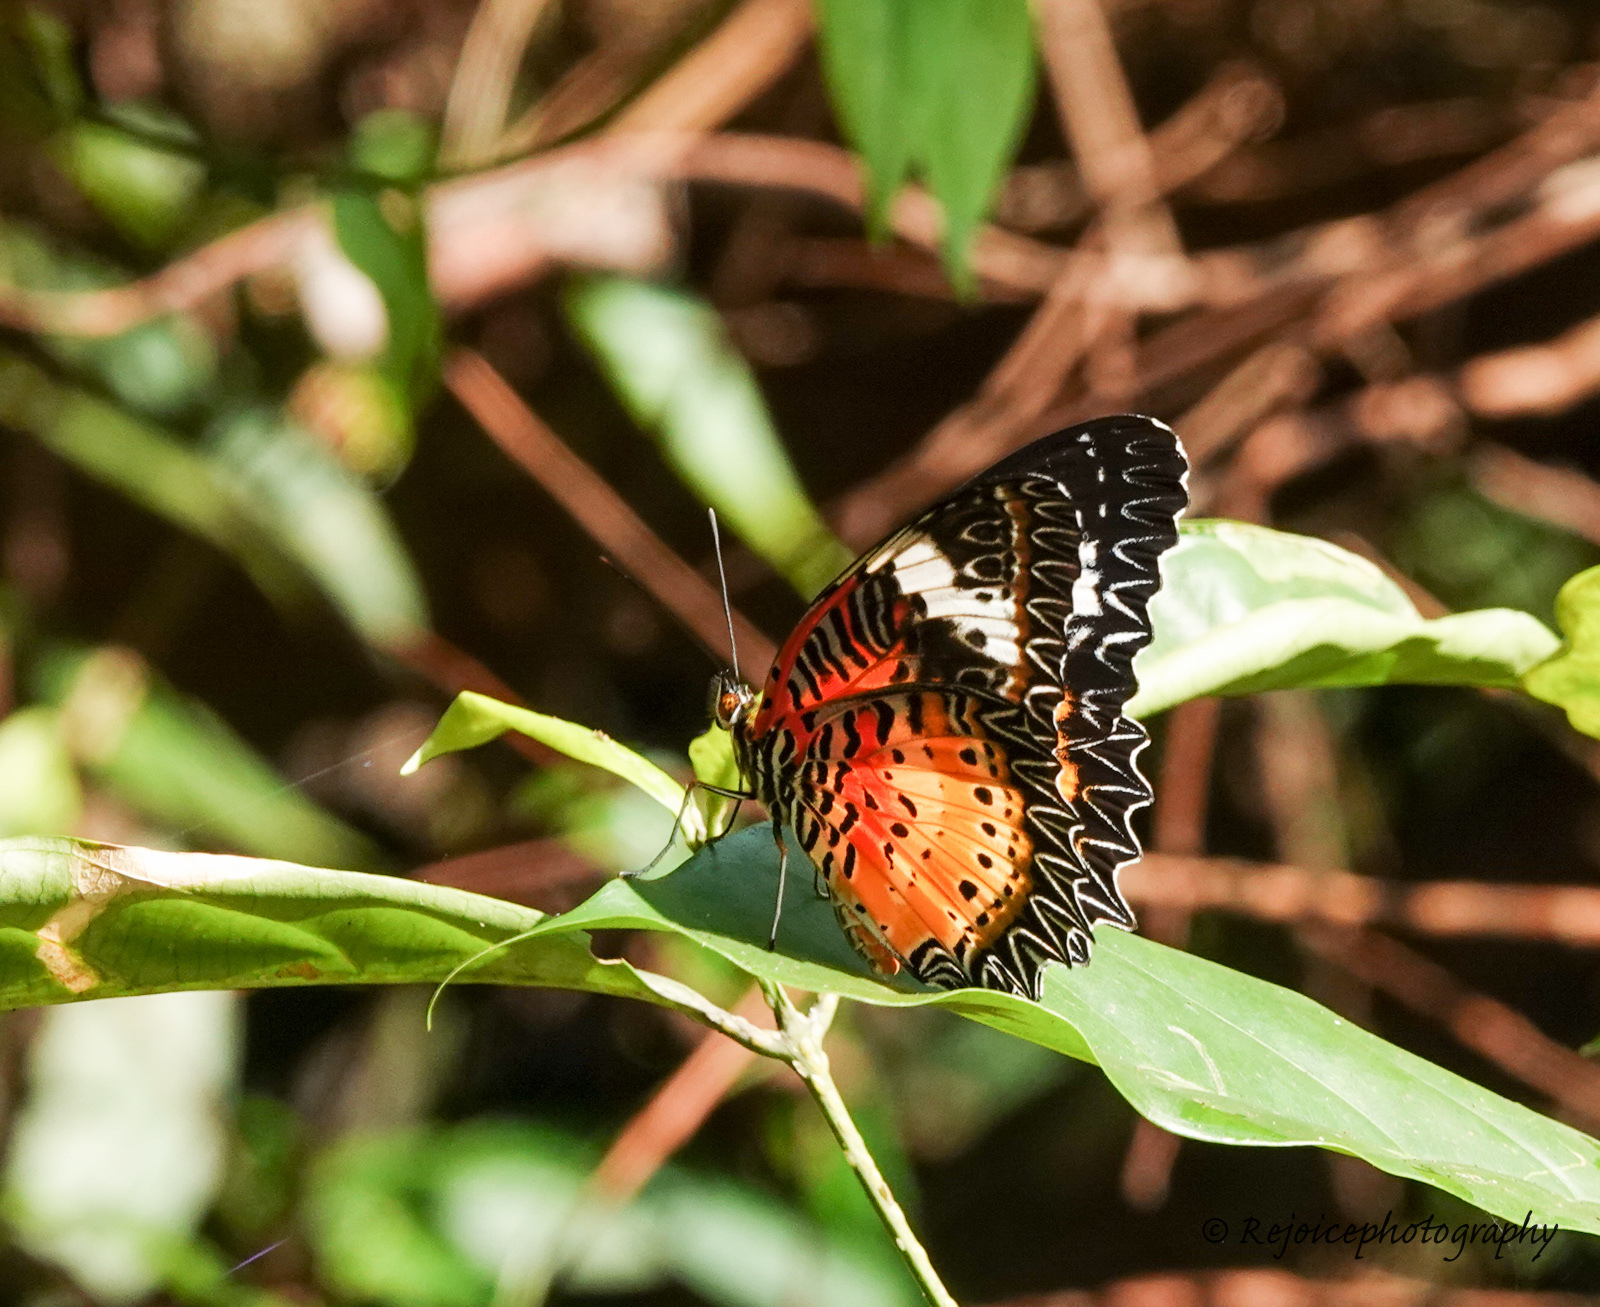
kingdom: Animalia
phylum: Arthropoda
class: Insecta
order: Lepidoptera
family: Nymphalidae
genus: Cethosia
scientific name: Cethosia cyane
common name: Leopard lacewing butterfly
